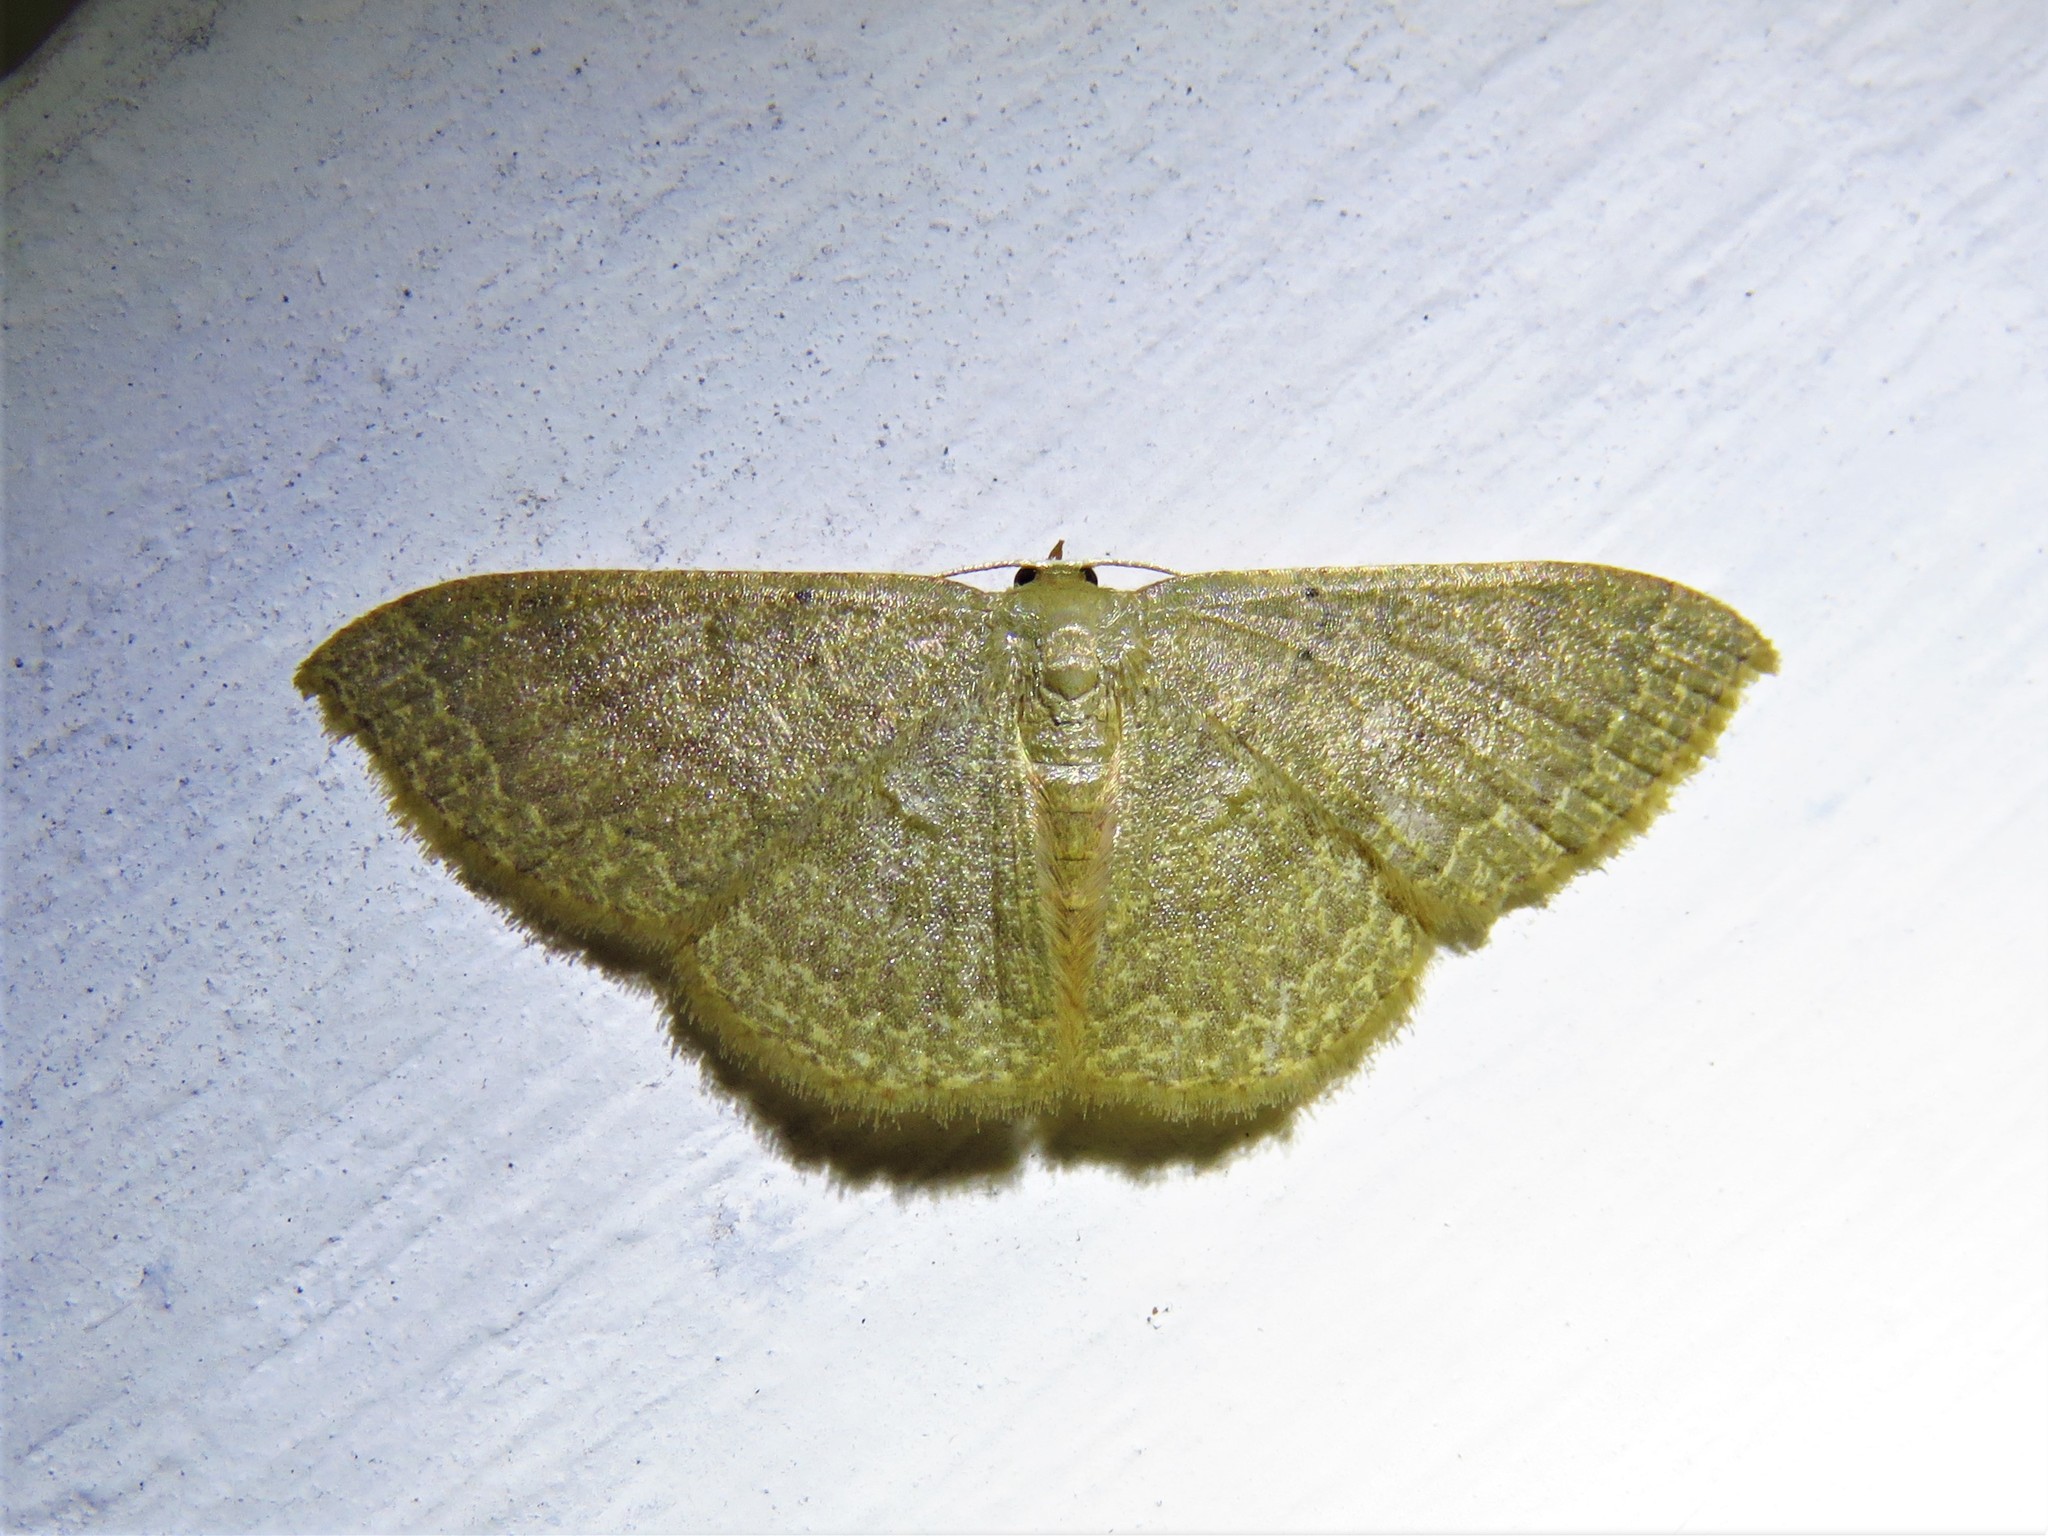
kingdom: Animalia
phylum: Arthropoda
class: Insecta
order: Lepidoptera
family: Geometridae
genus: Pleuroprucha
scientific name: Pleuroprucha insulsaria
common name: Common tan wave
